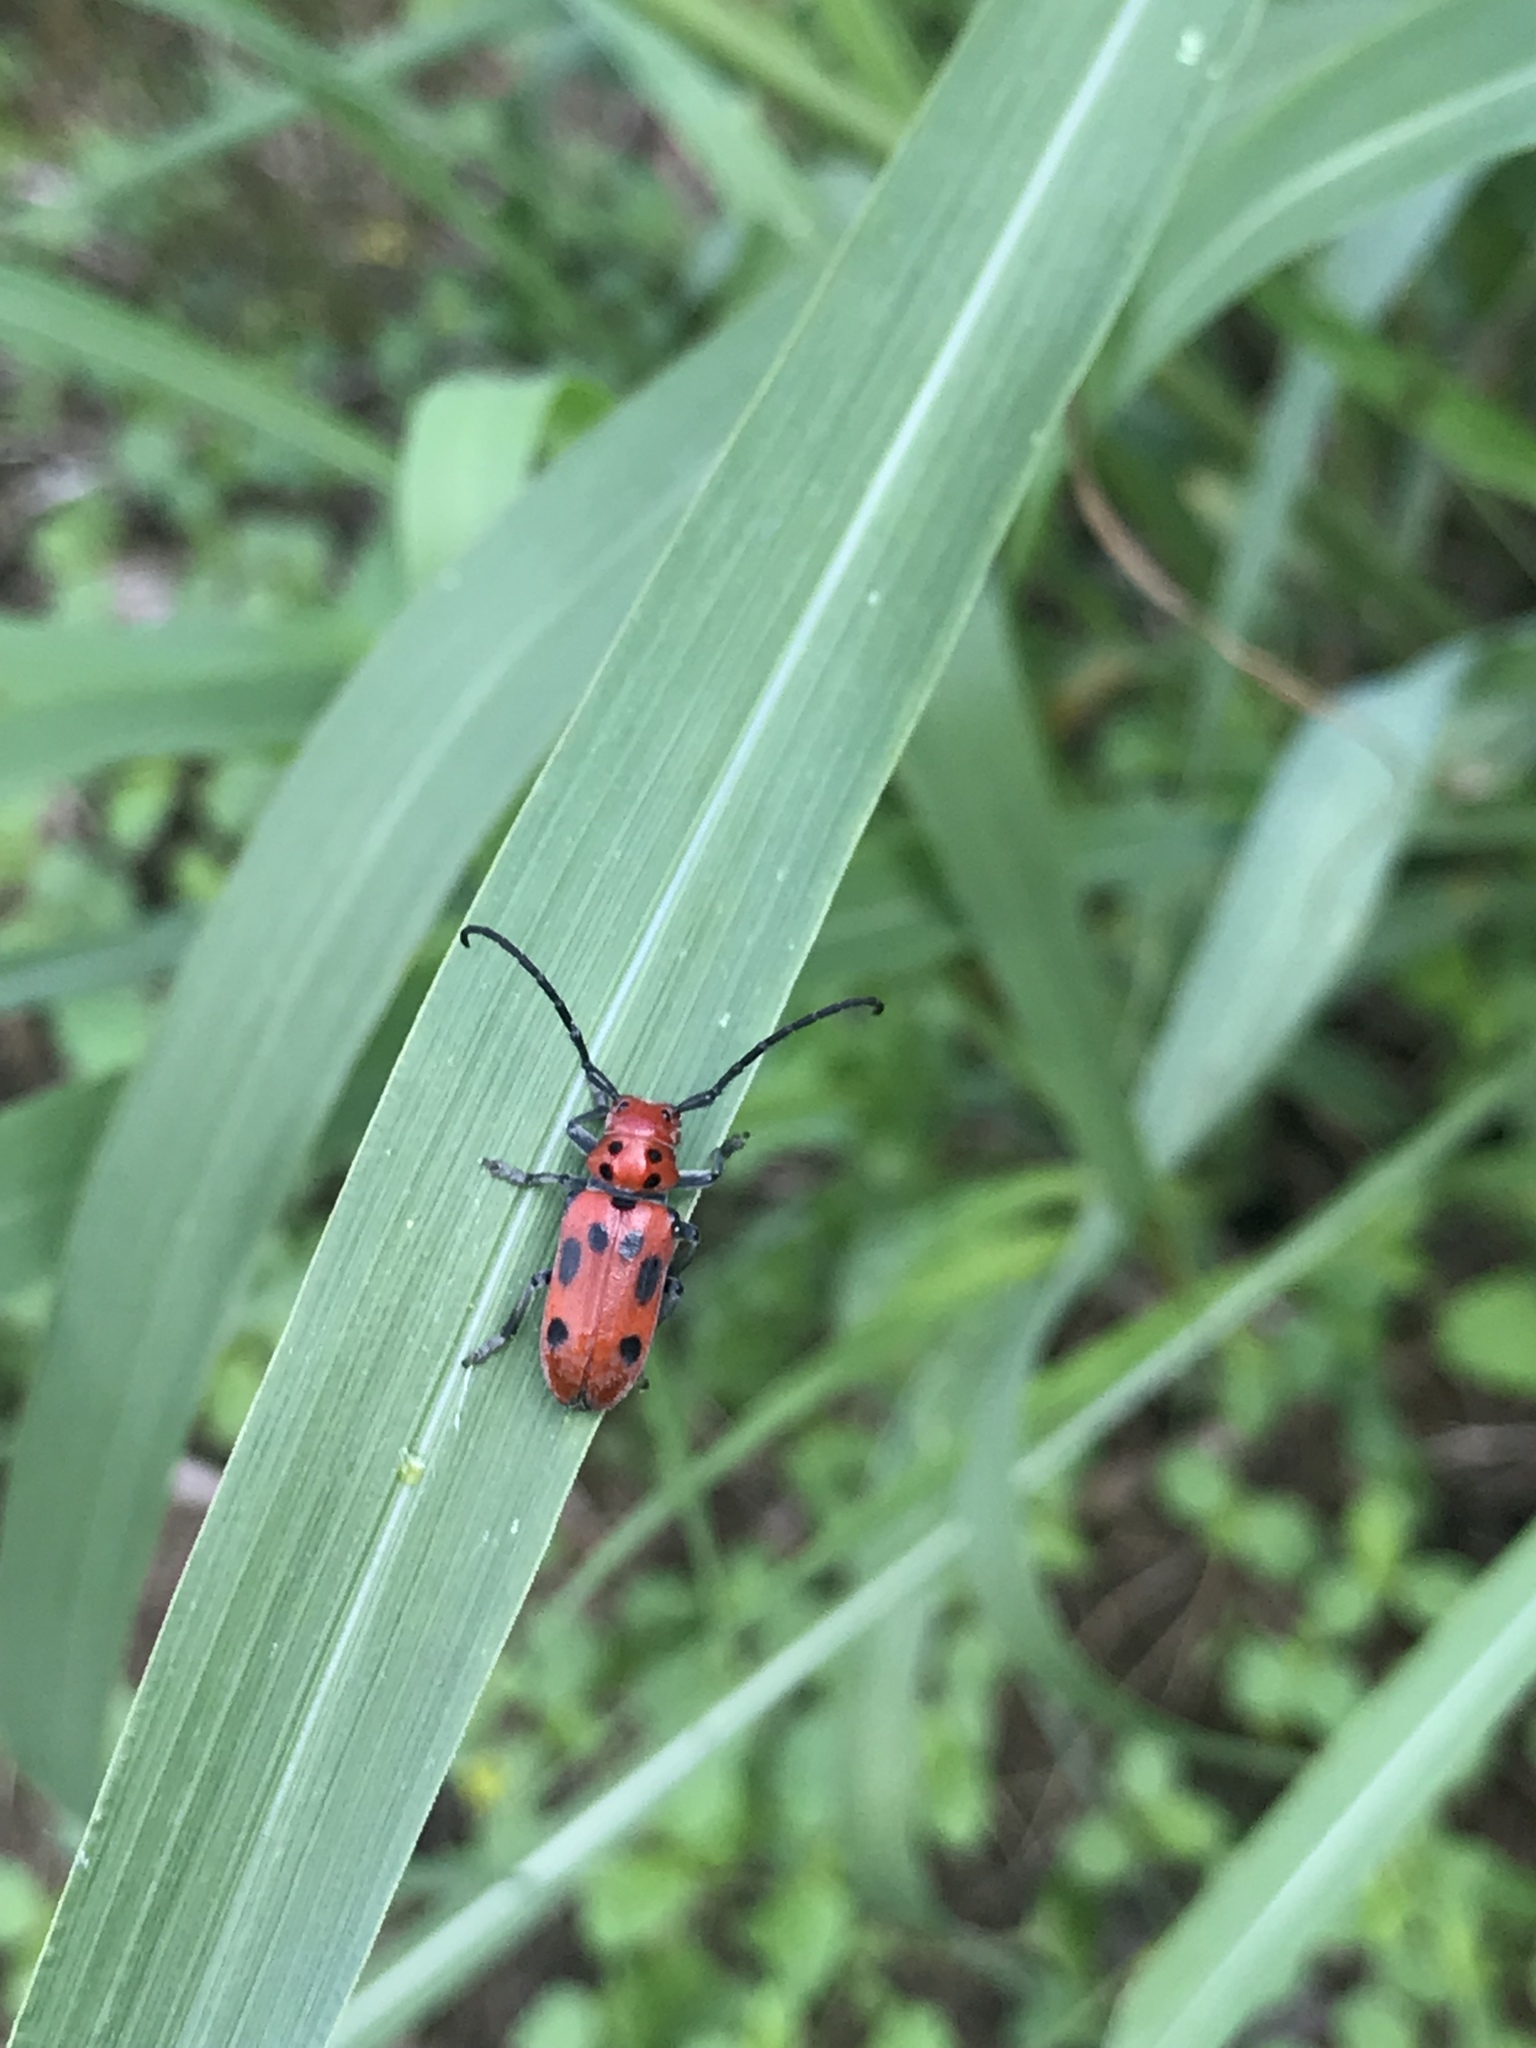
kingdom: Animalia
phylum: Arthropoda
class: Insecta
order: Coleoptera
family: Cerambycidae
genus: Tetraopes
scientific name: Tetraopes tetrophthalmus
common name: Red milkweed beetle
